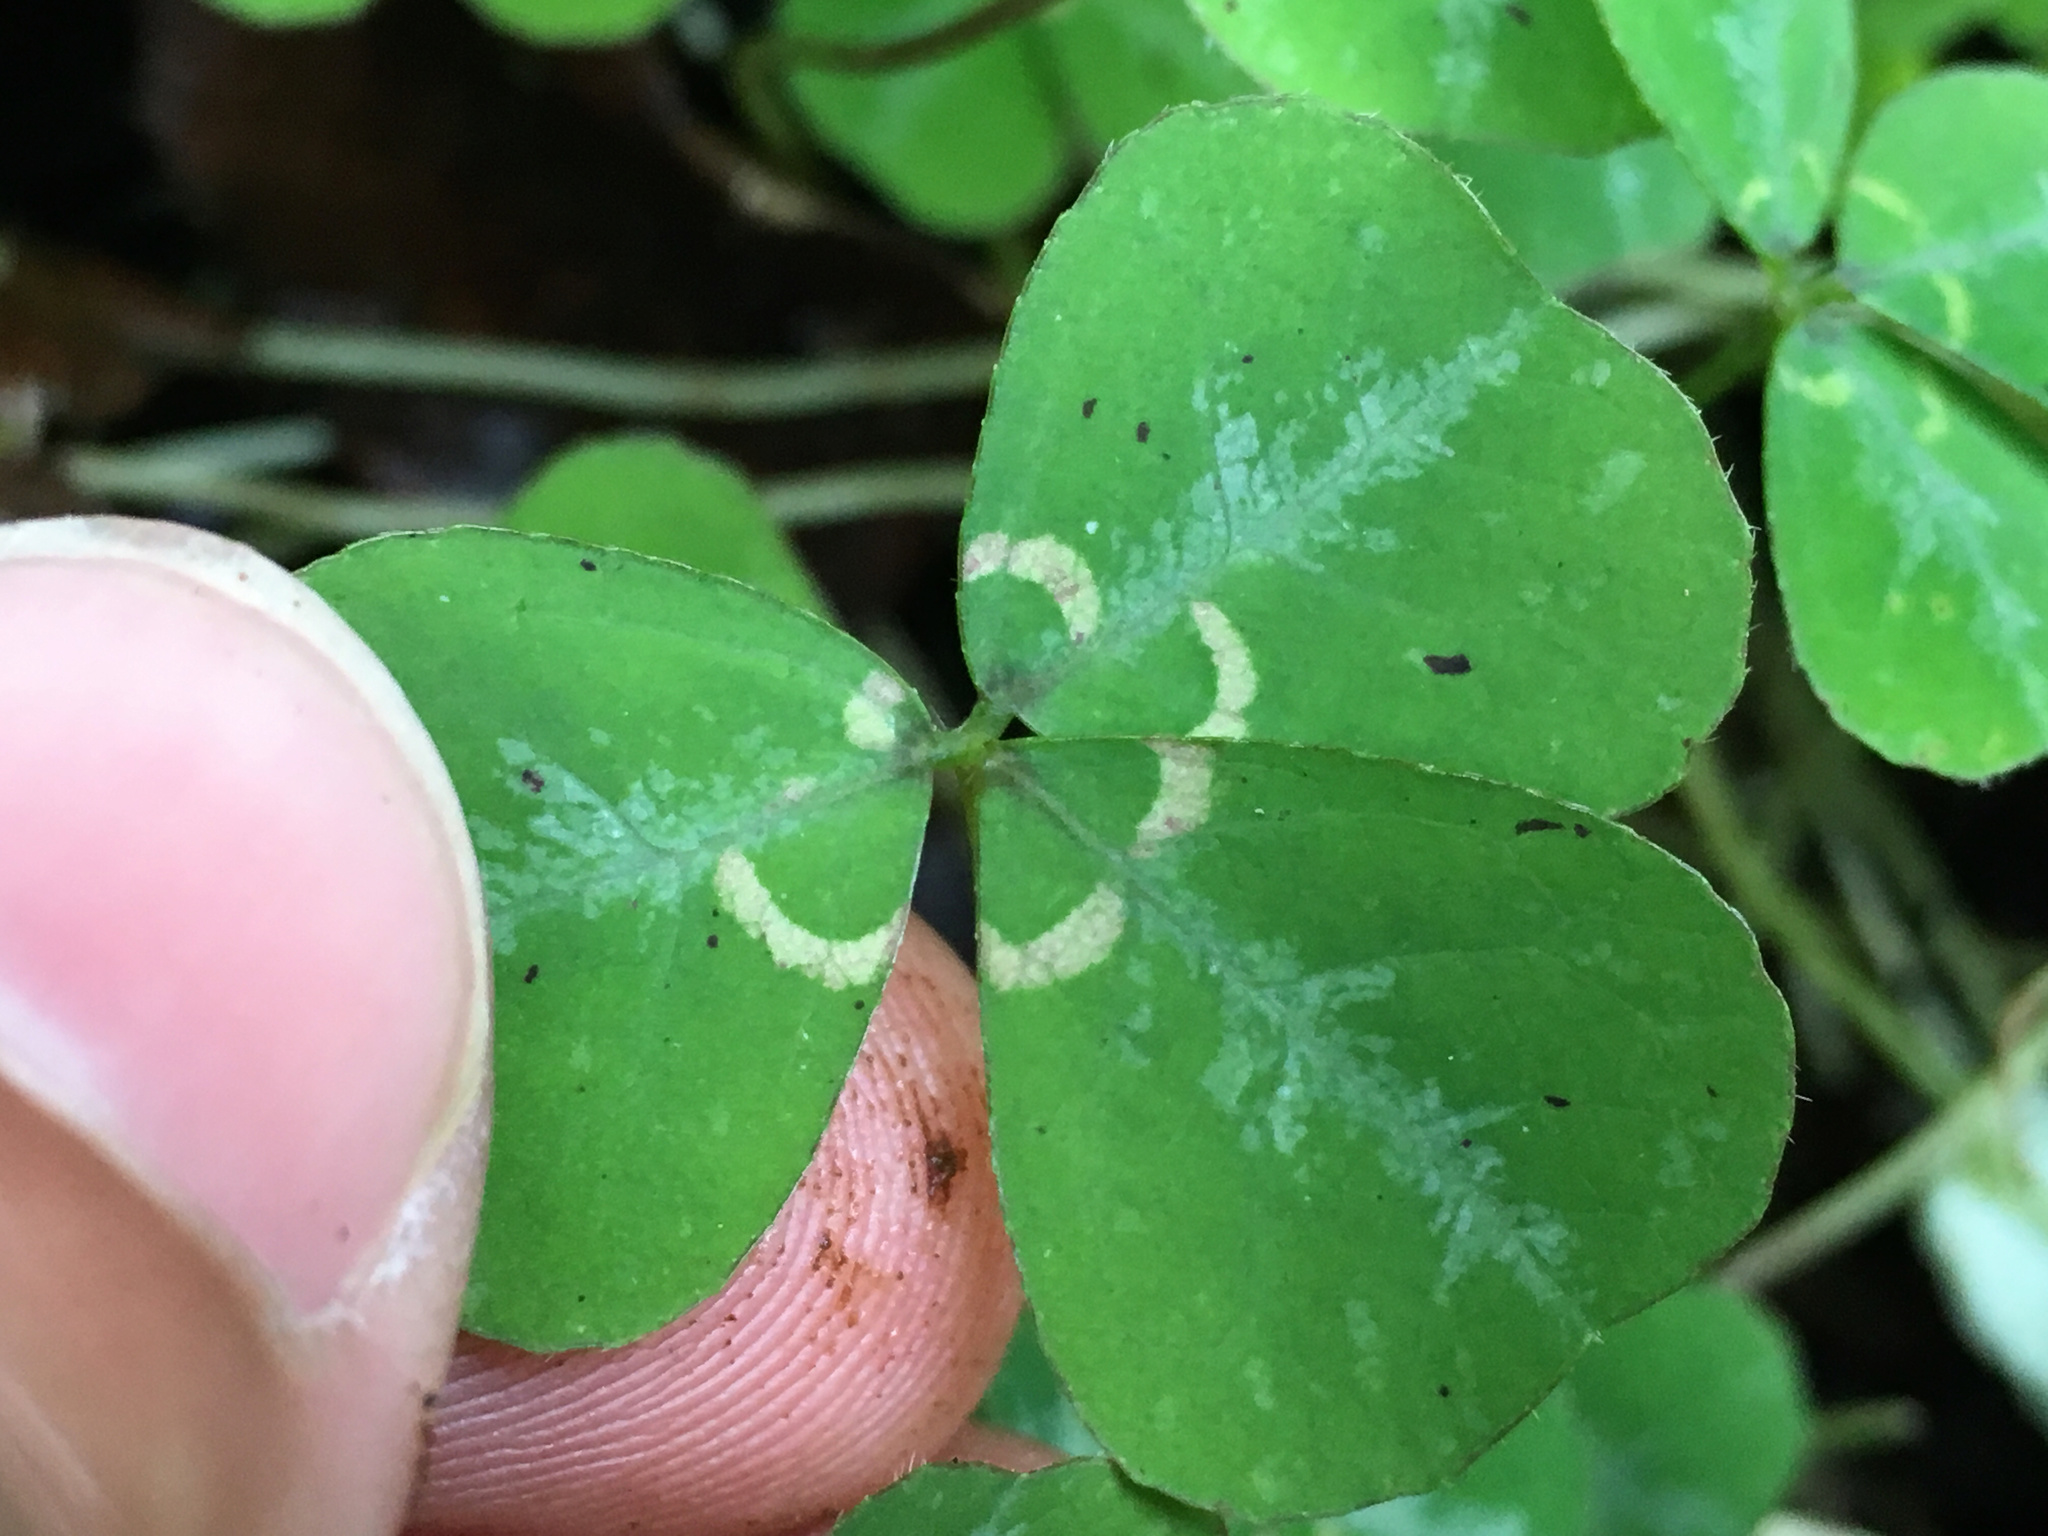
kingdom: Plantae
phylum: Tracheophyta
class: Magnoliopsida
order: Fabales
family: Fabaceae
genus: Parochetus
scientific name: Parochetus communis
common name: Blue oxalis
